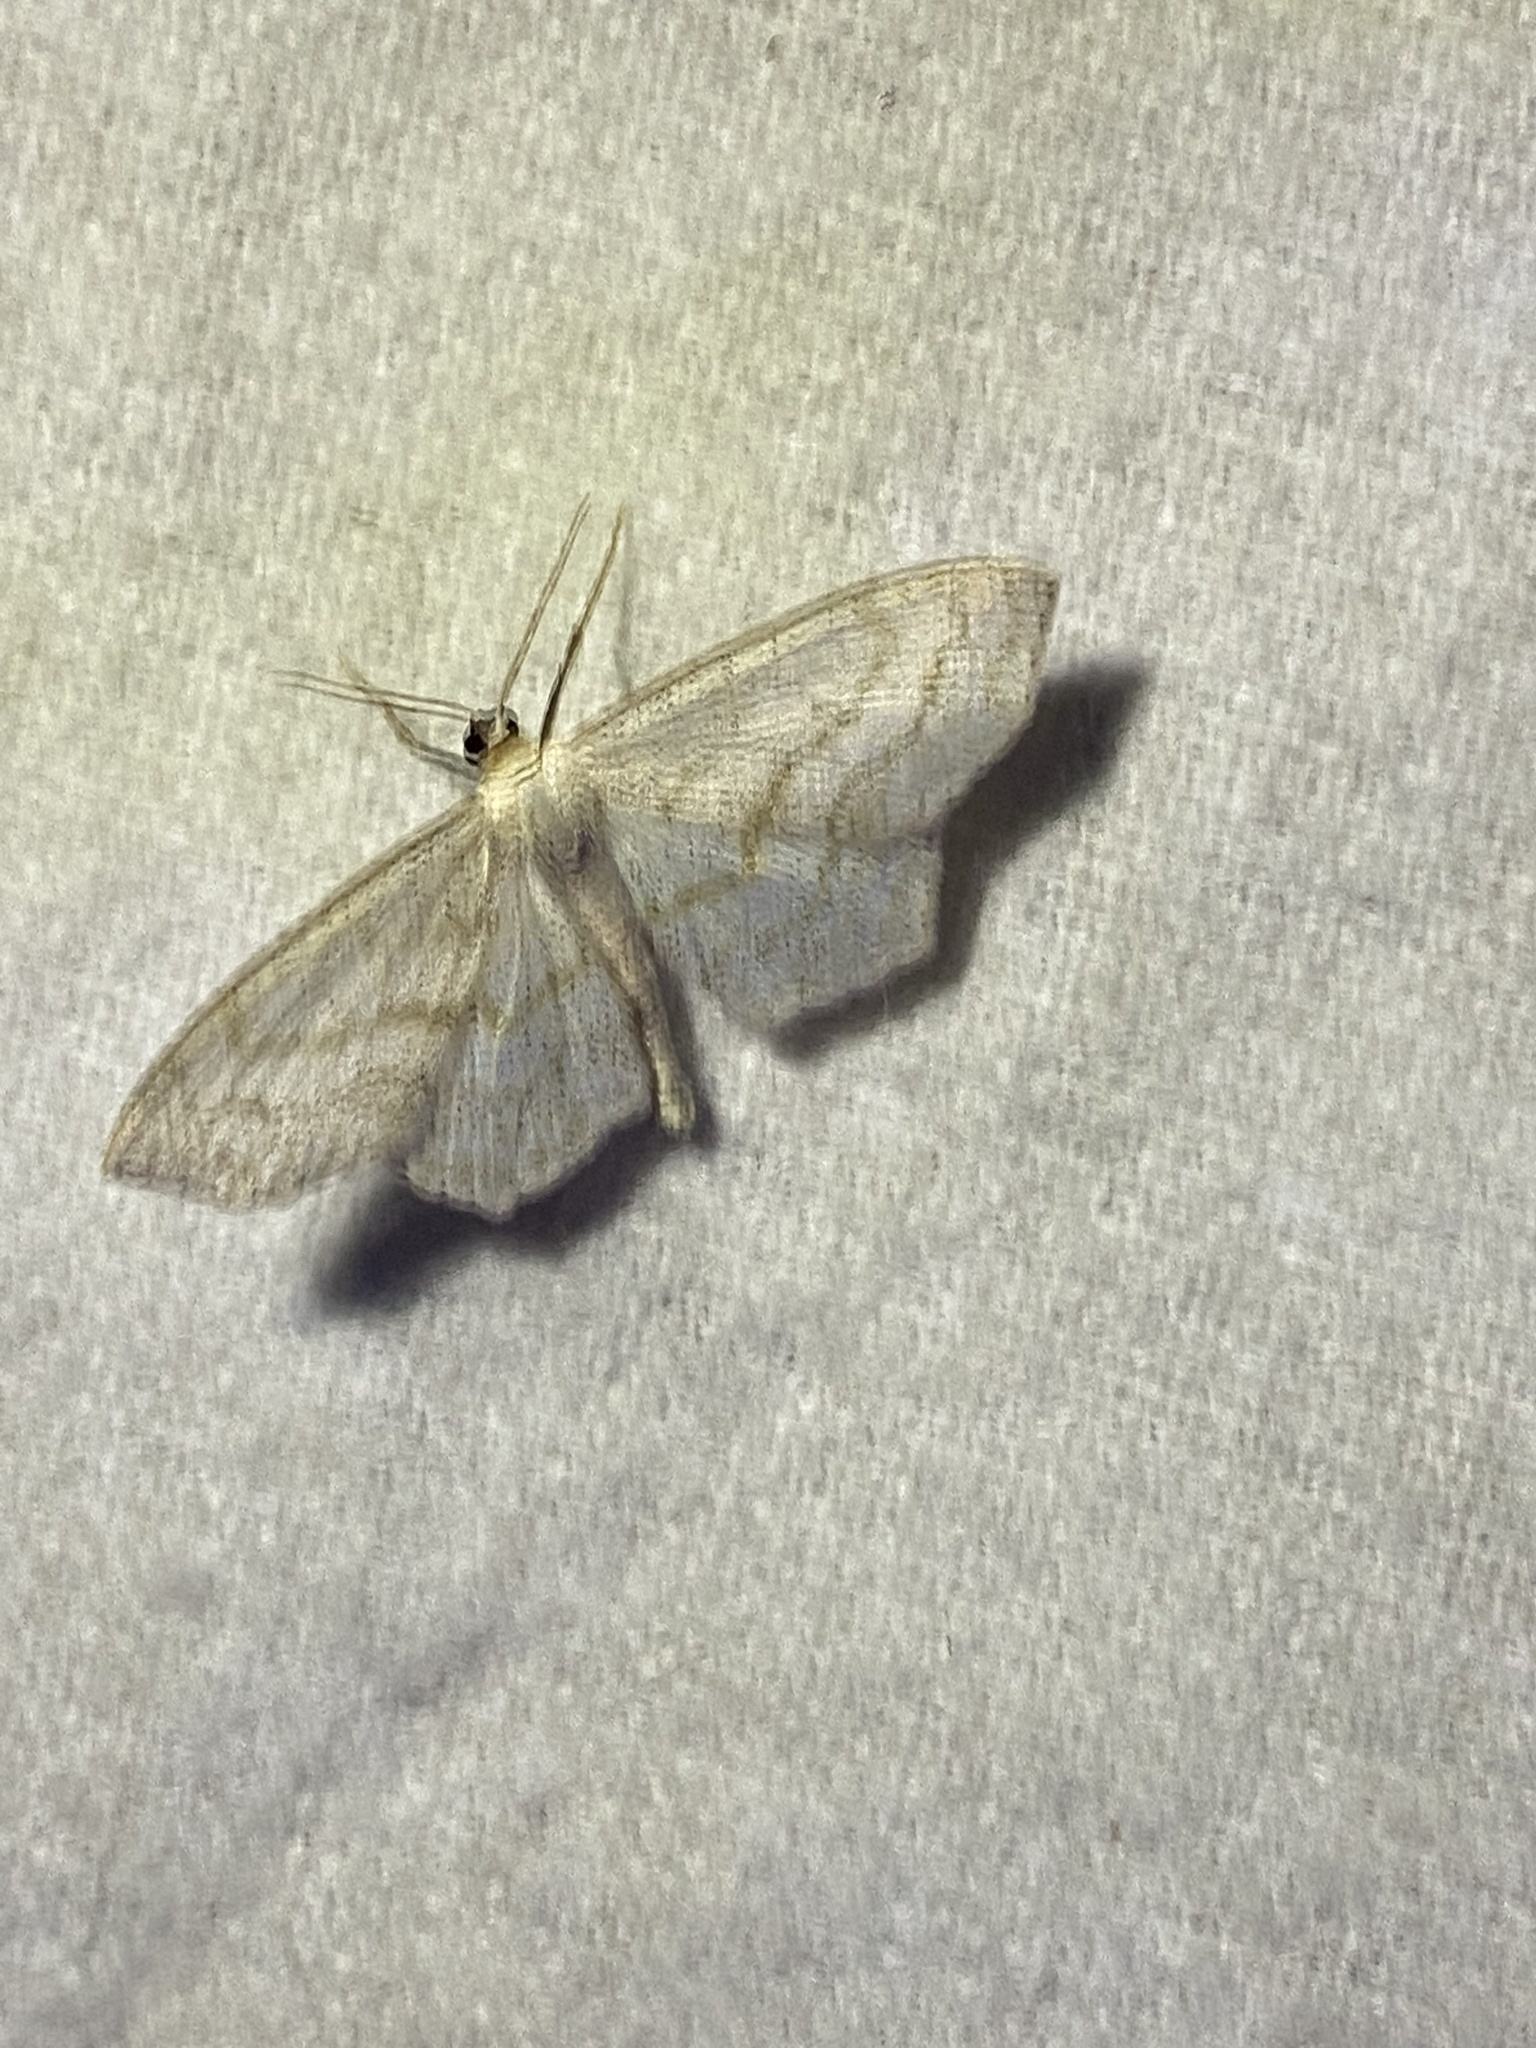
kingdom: Animalia
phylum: Arthropoda
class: Insecta
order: Lepidoptera
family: Geometridae
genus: Scopula
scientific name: Scopula limboundata
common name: Large lace border
